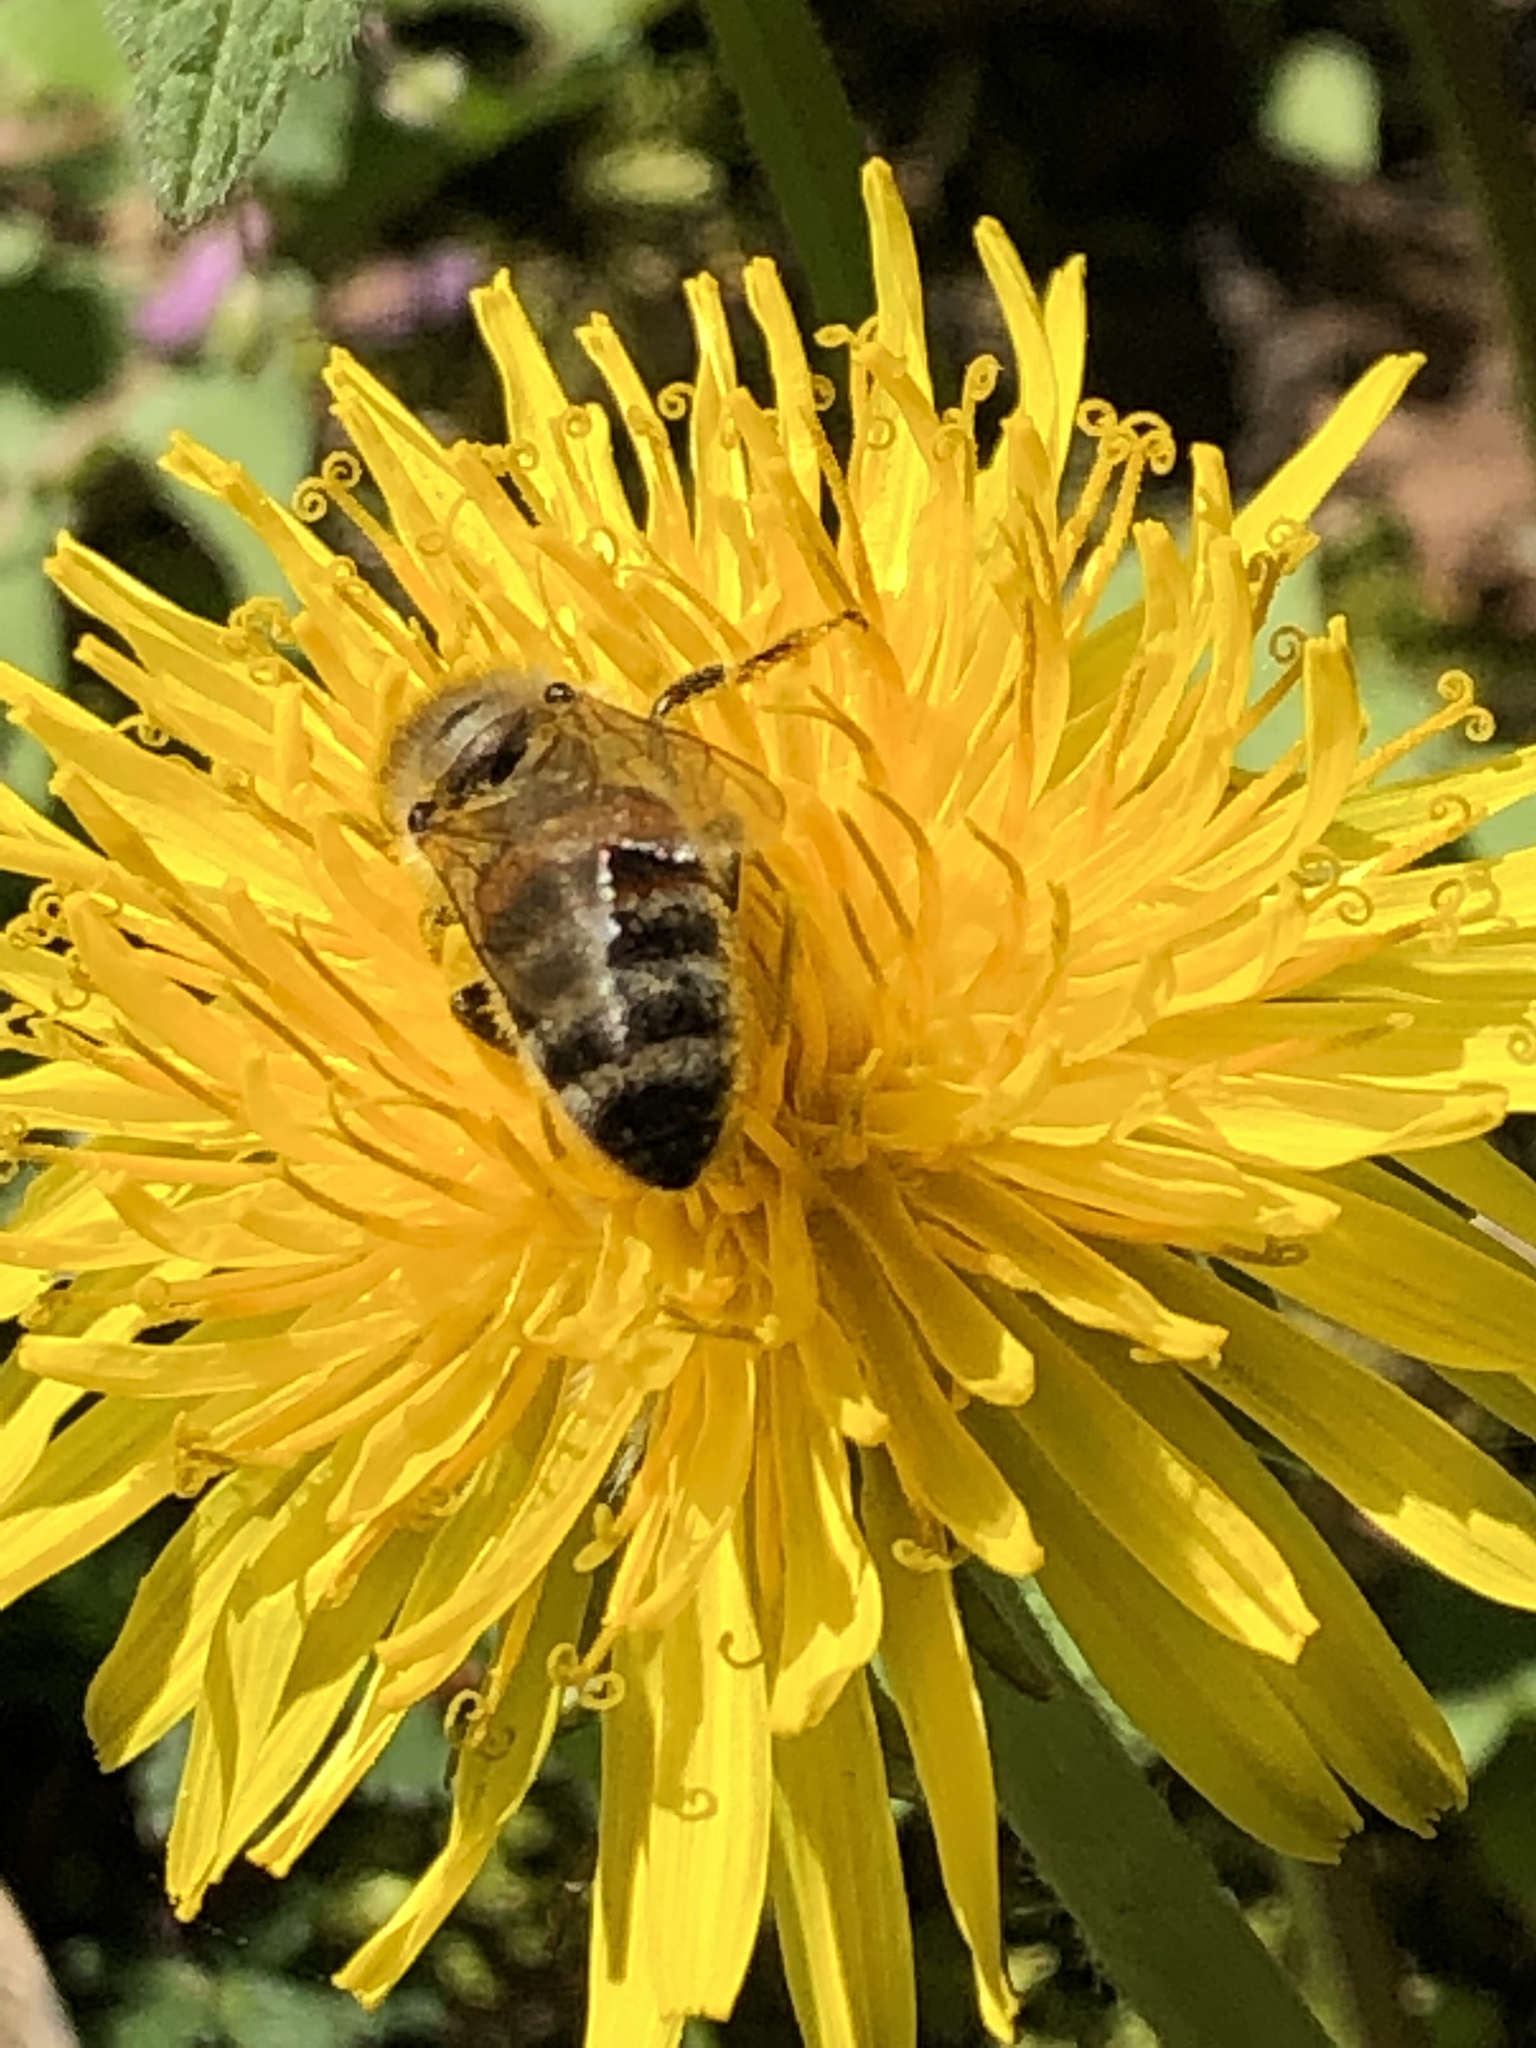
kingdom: Animalia
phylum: Arthropoda
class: Insecta
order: Hymenoptera
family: Apidae
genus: Apis
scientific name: Apis mellifera
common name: Honey bee
